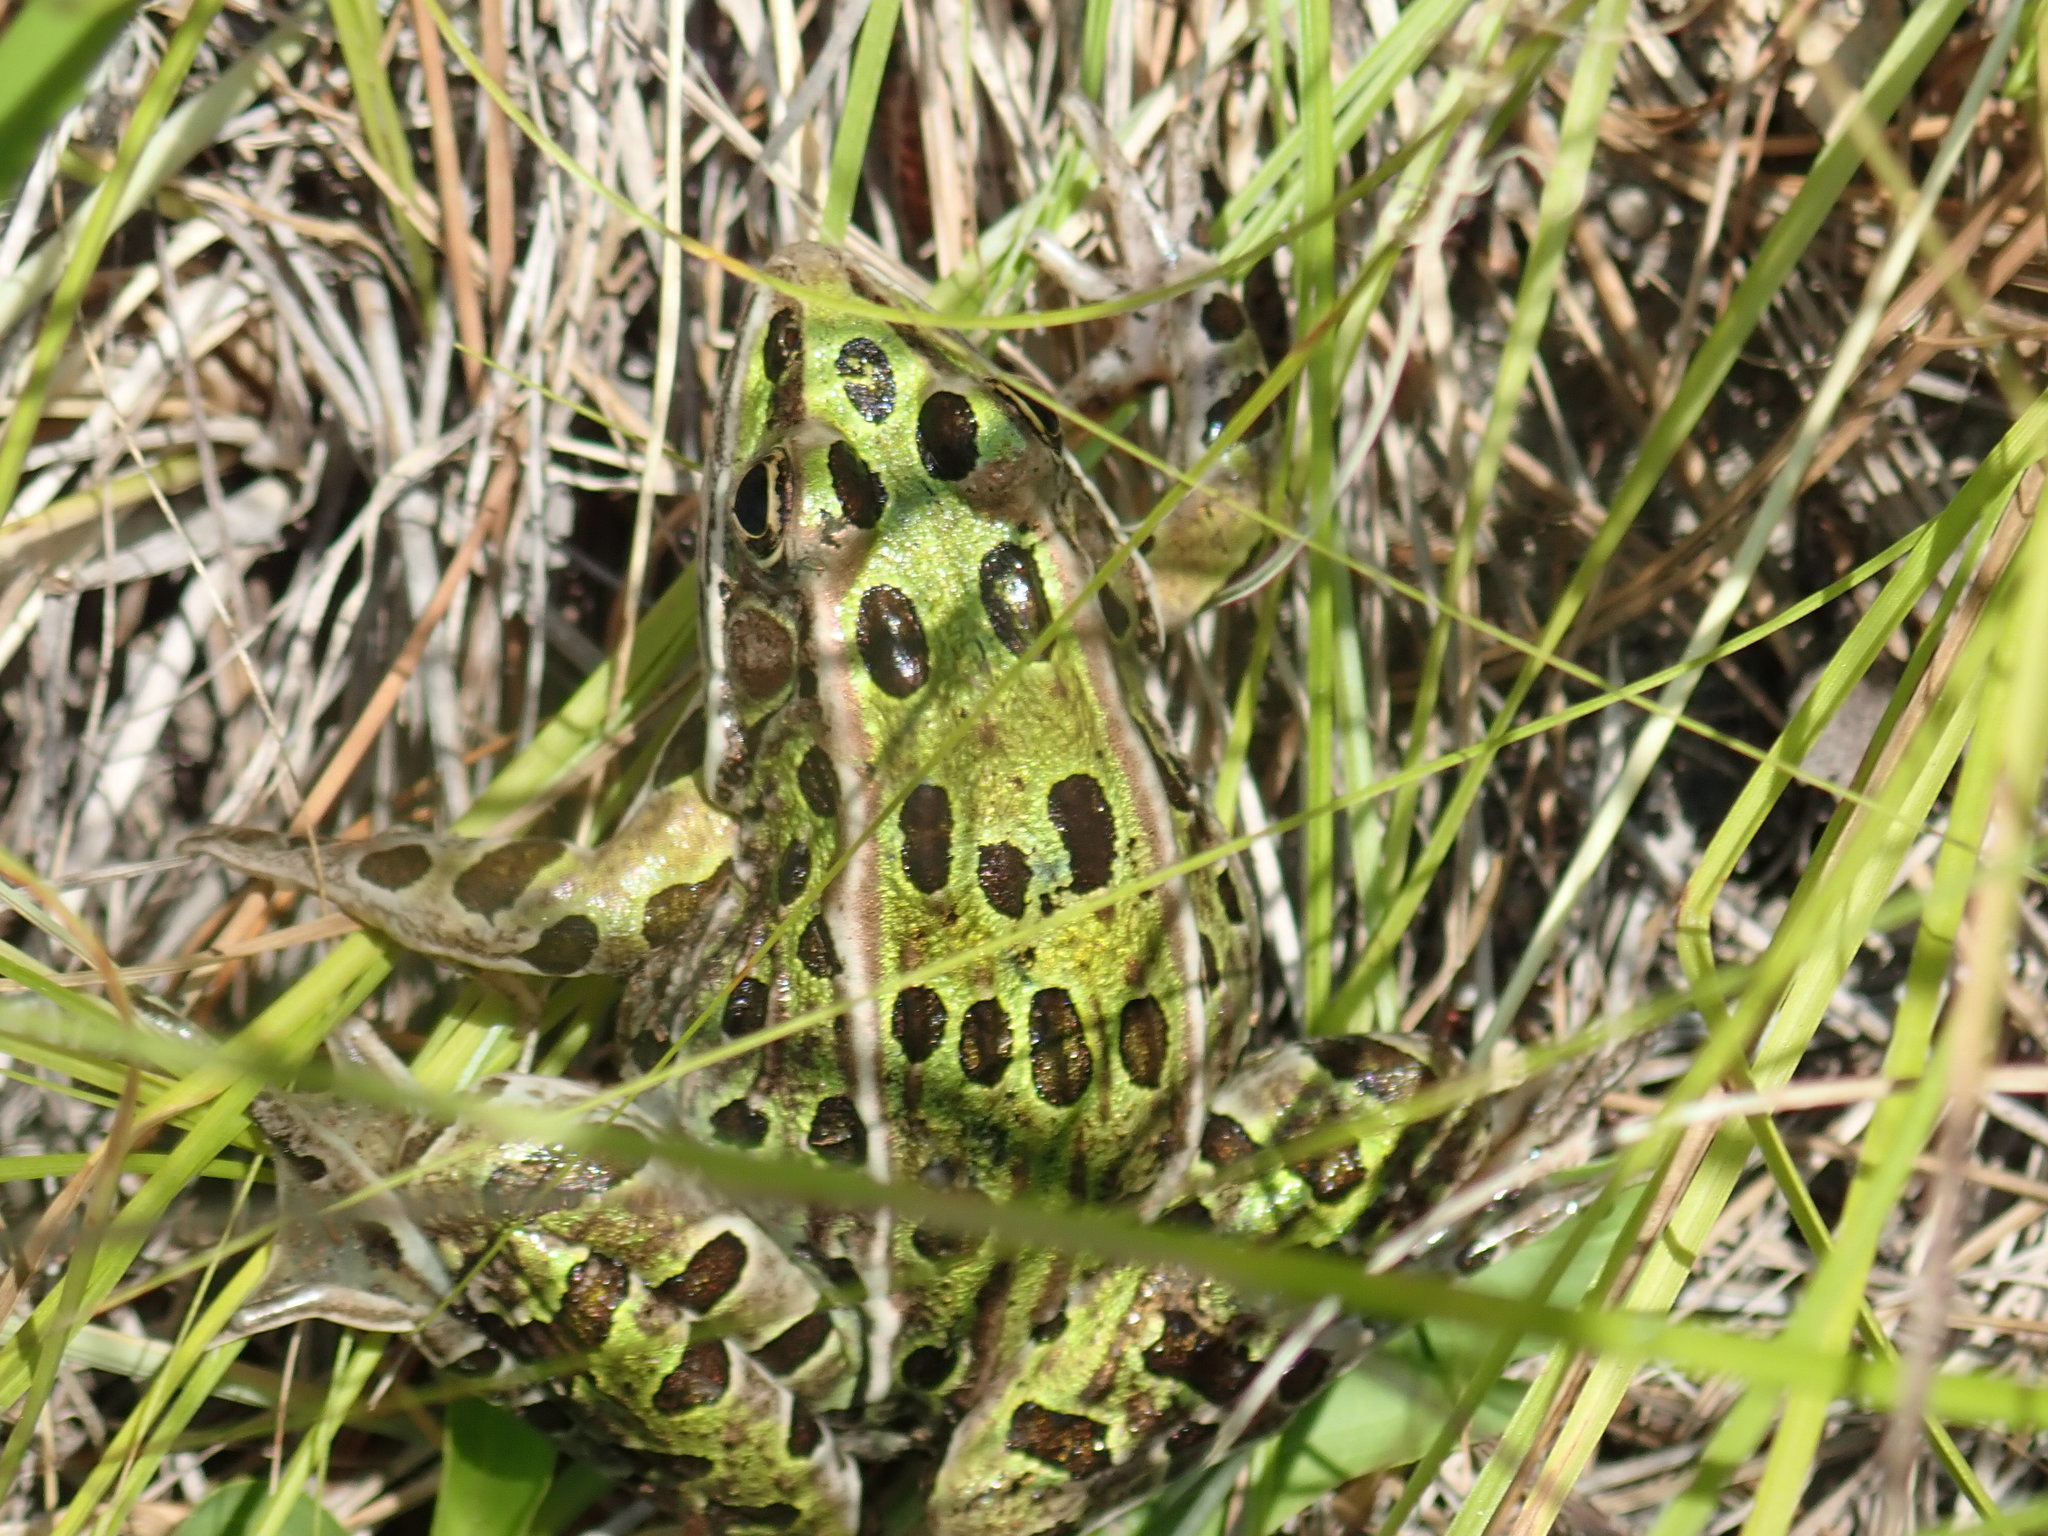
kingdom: Animalia
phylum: Chordata
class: Amphibia
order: Anura
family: Ranidae
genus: Lithobates
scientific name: Lithobates pipiens
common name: Northern leopard frog
